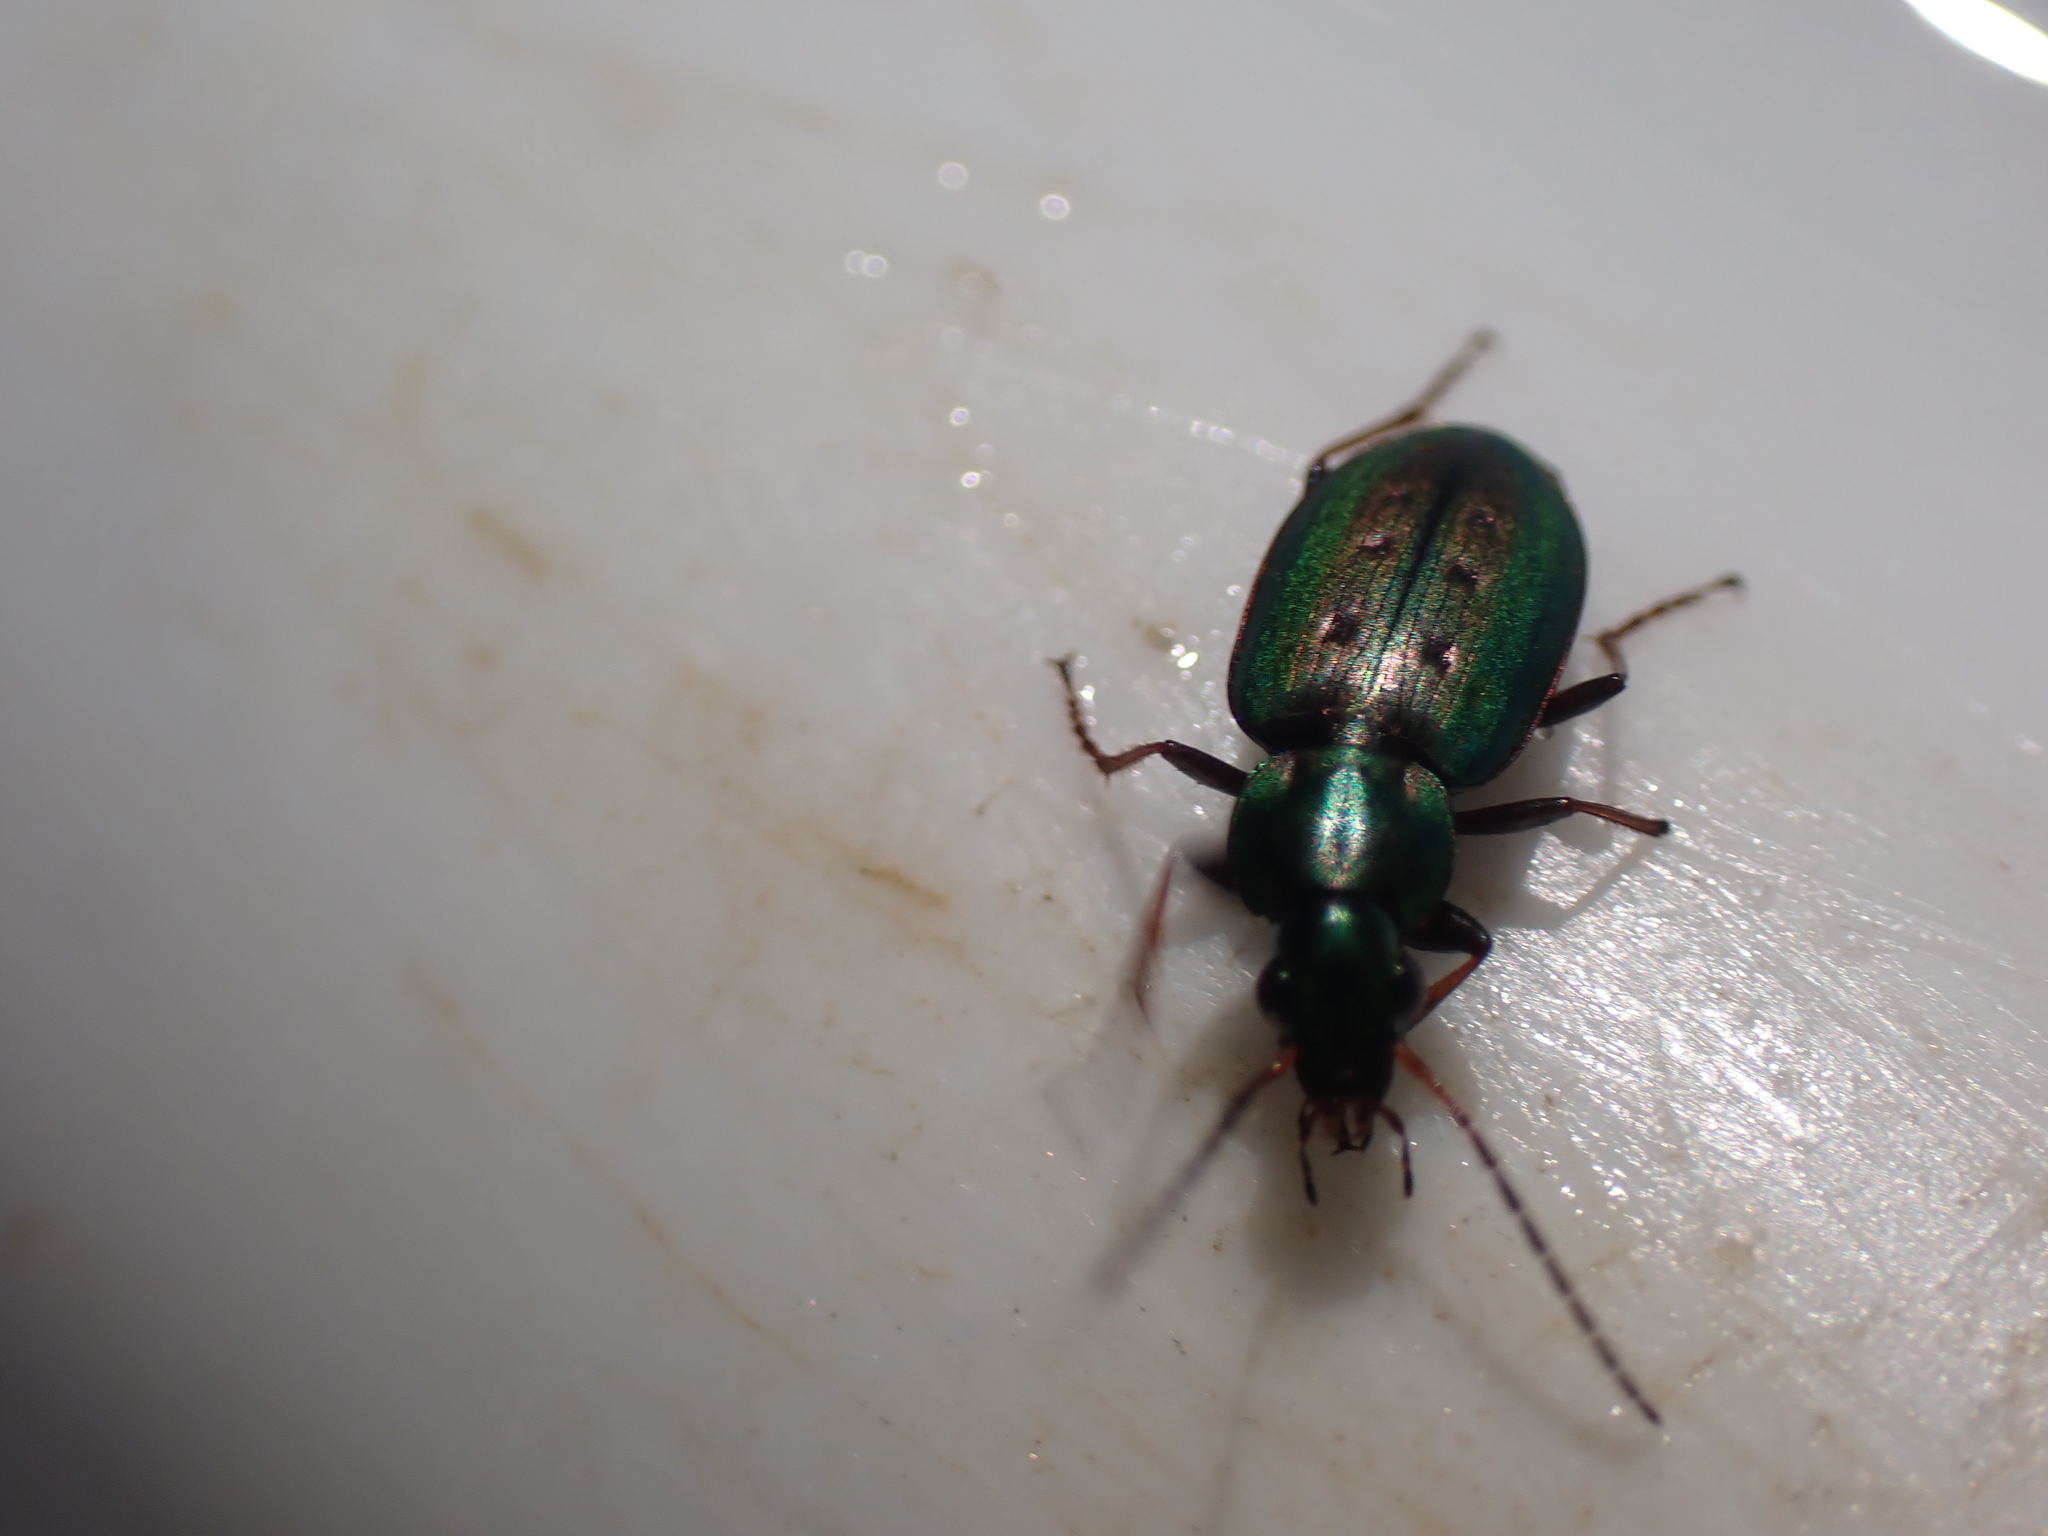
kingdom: Animalia
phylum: Arthropoda
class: Insecta
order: Coleoptera
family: Carabidae
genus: Agonum
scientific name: Agonum octopunctatum
